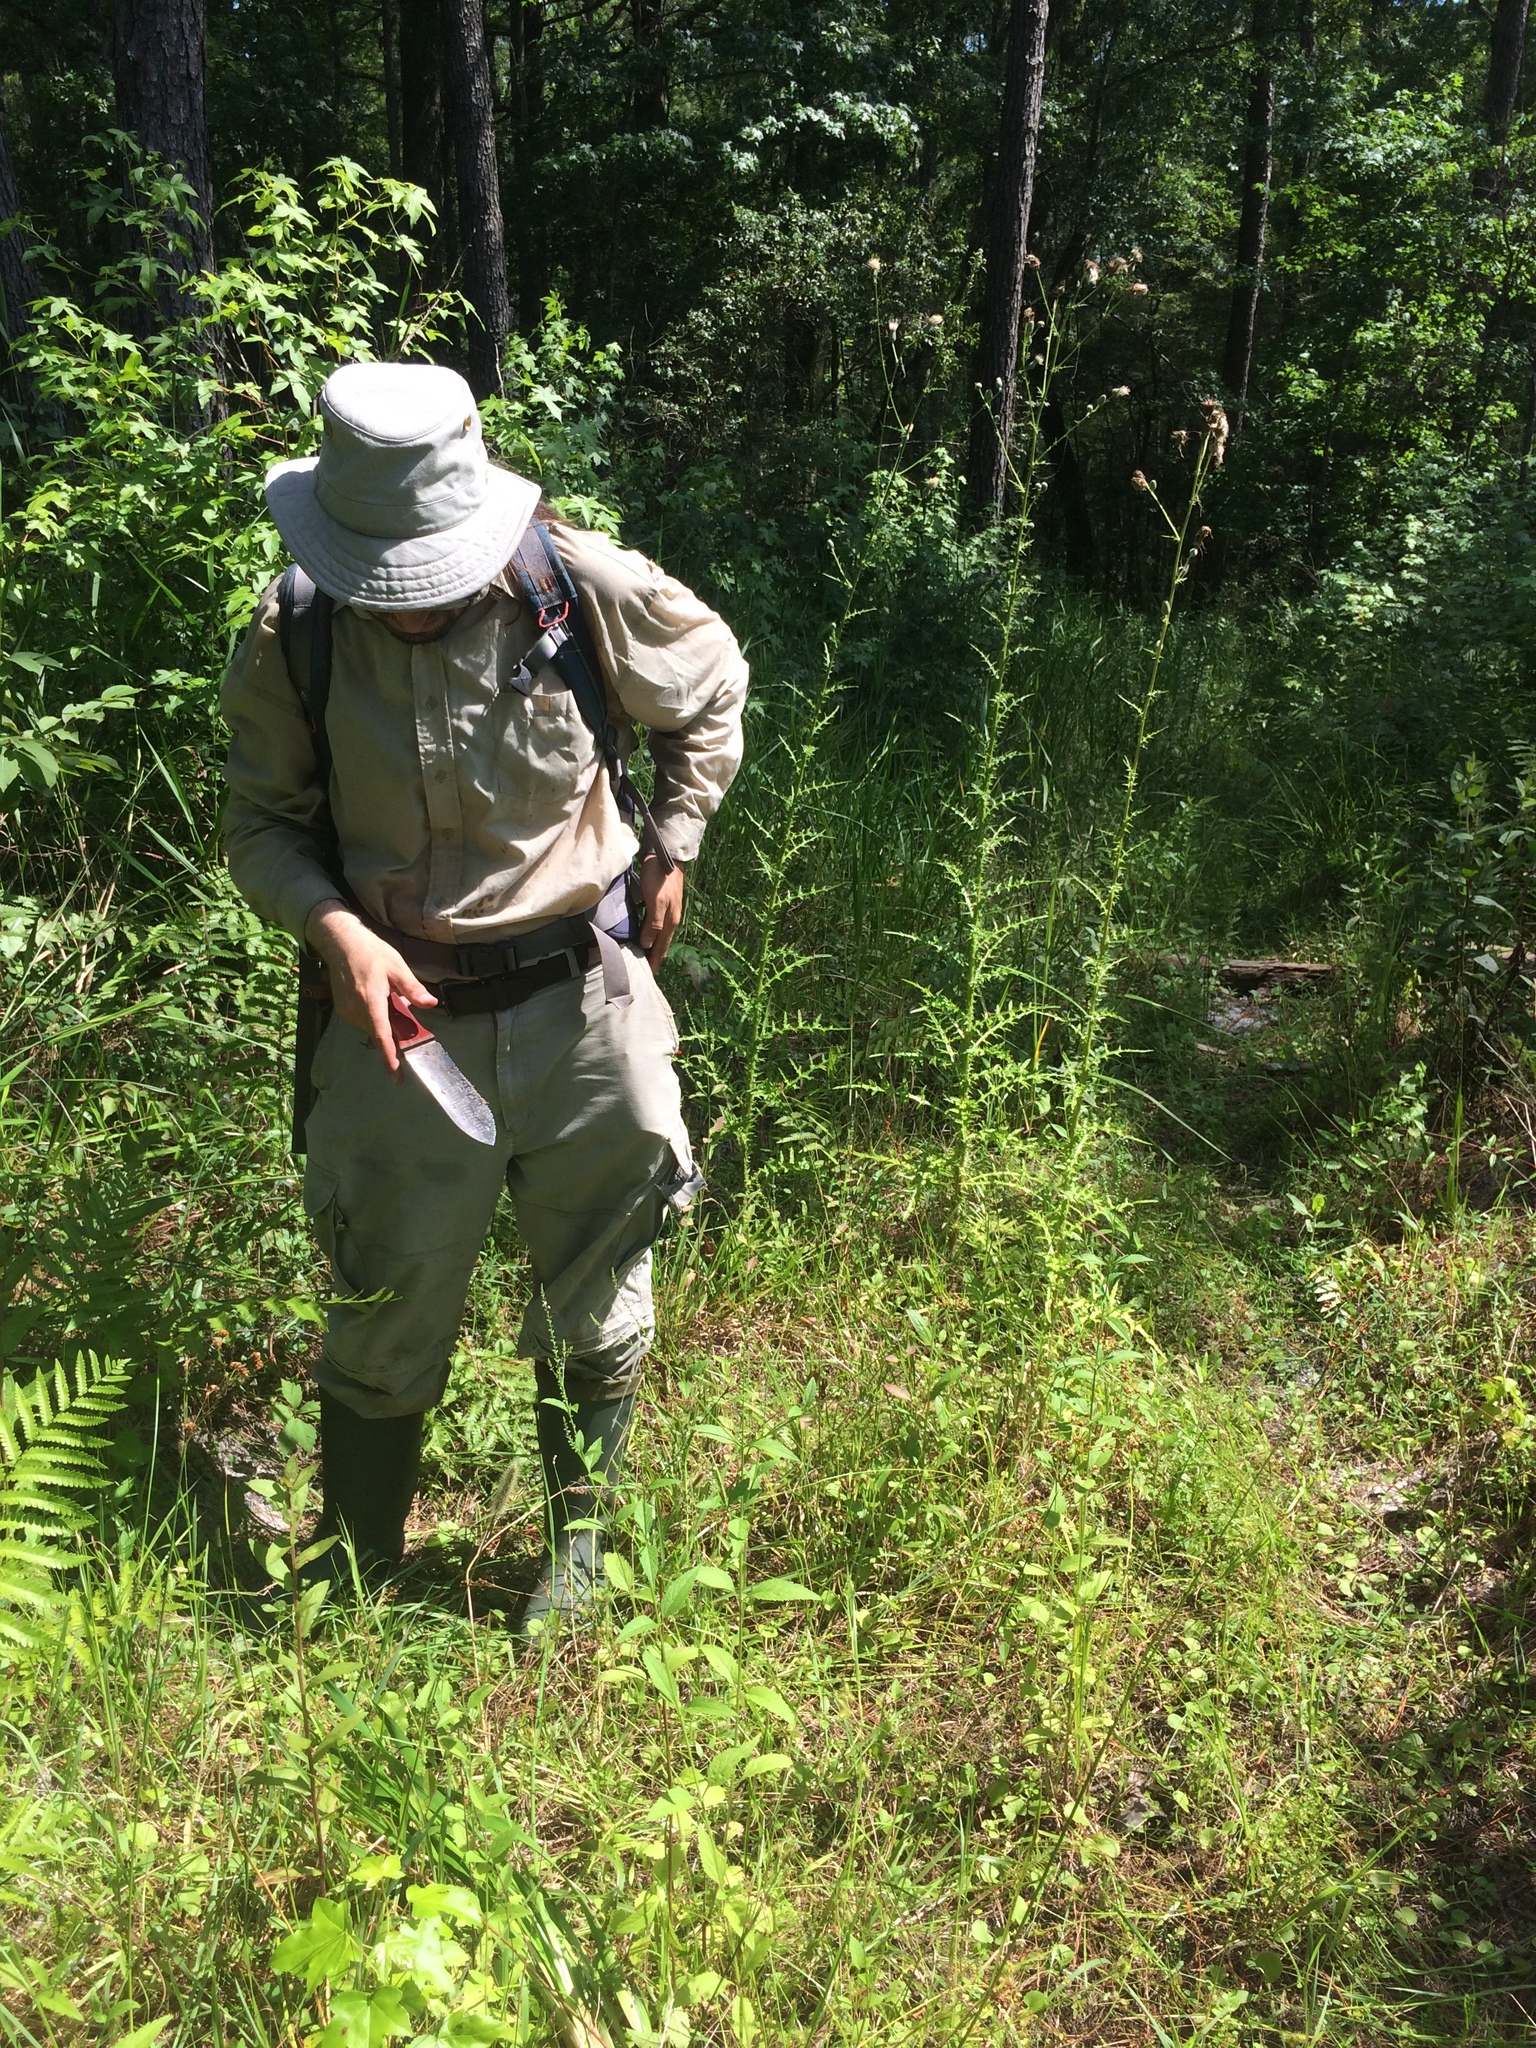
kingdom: Plantae
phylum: Tracheophyta
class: Magnoliopsida
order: Myrtales
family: Lythraceae
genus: Cuphea
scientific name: Cuphea carthagenensis
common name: Colombian waxweed
